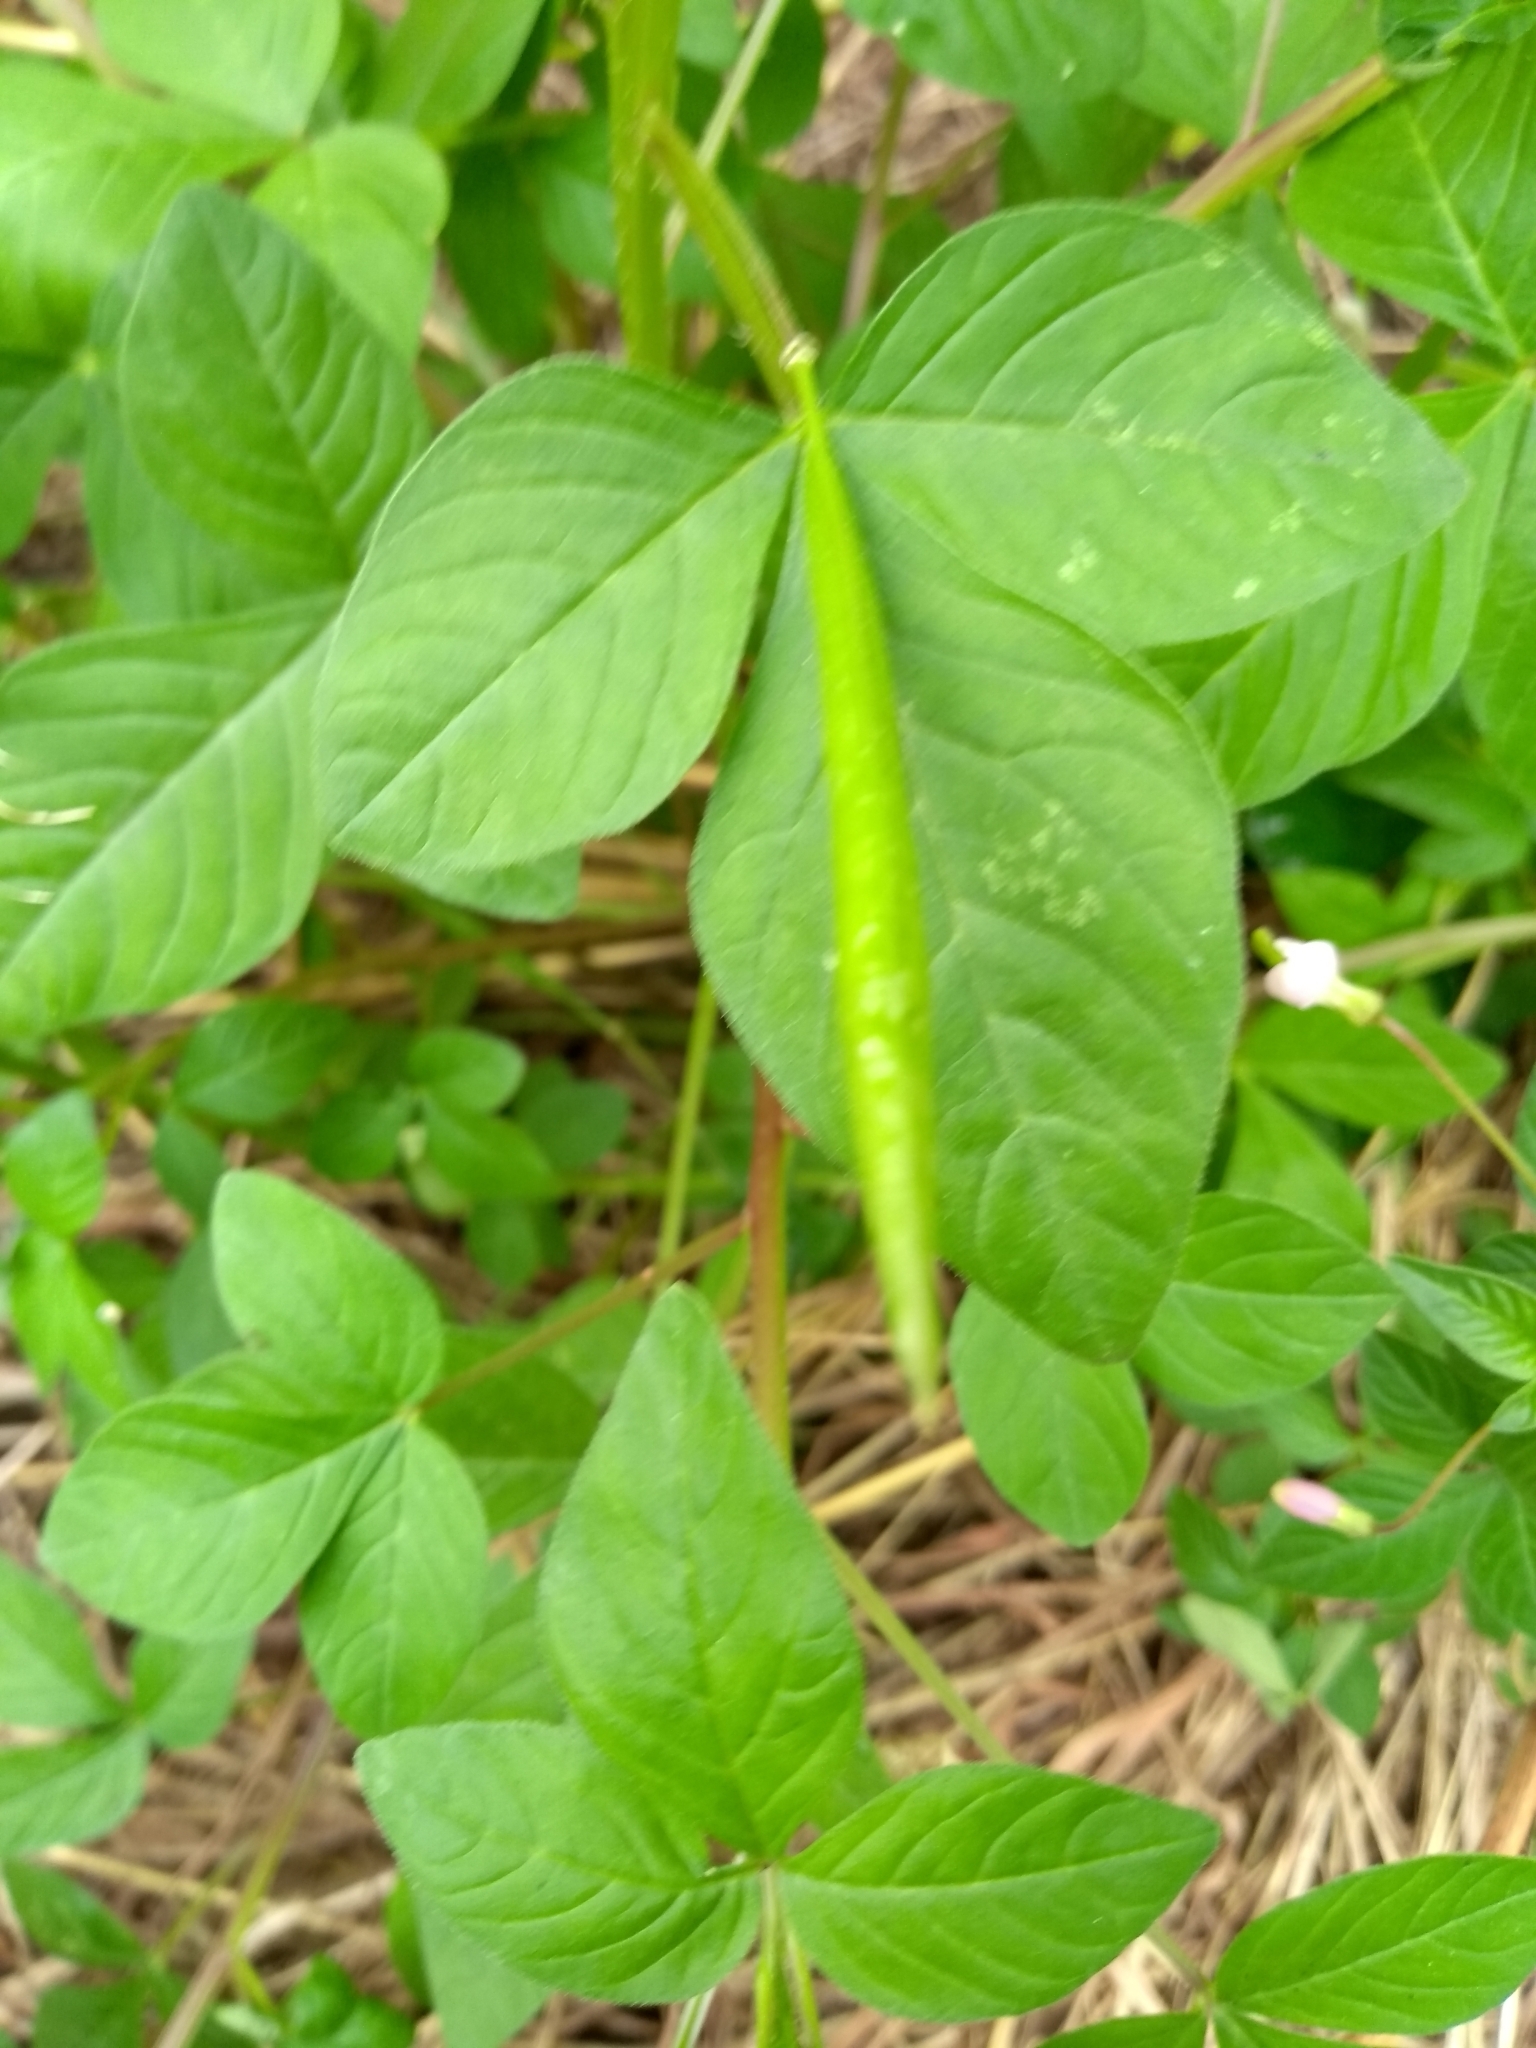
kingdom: Plantae
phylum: Tracheophyta
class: Magnoliopsida
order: Brassicales
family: Cleomaceae
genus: Sieruela
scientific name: Sieruela rutidosperma
